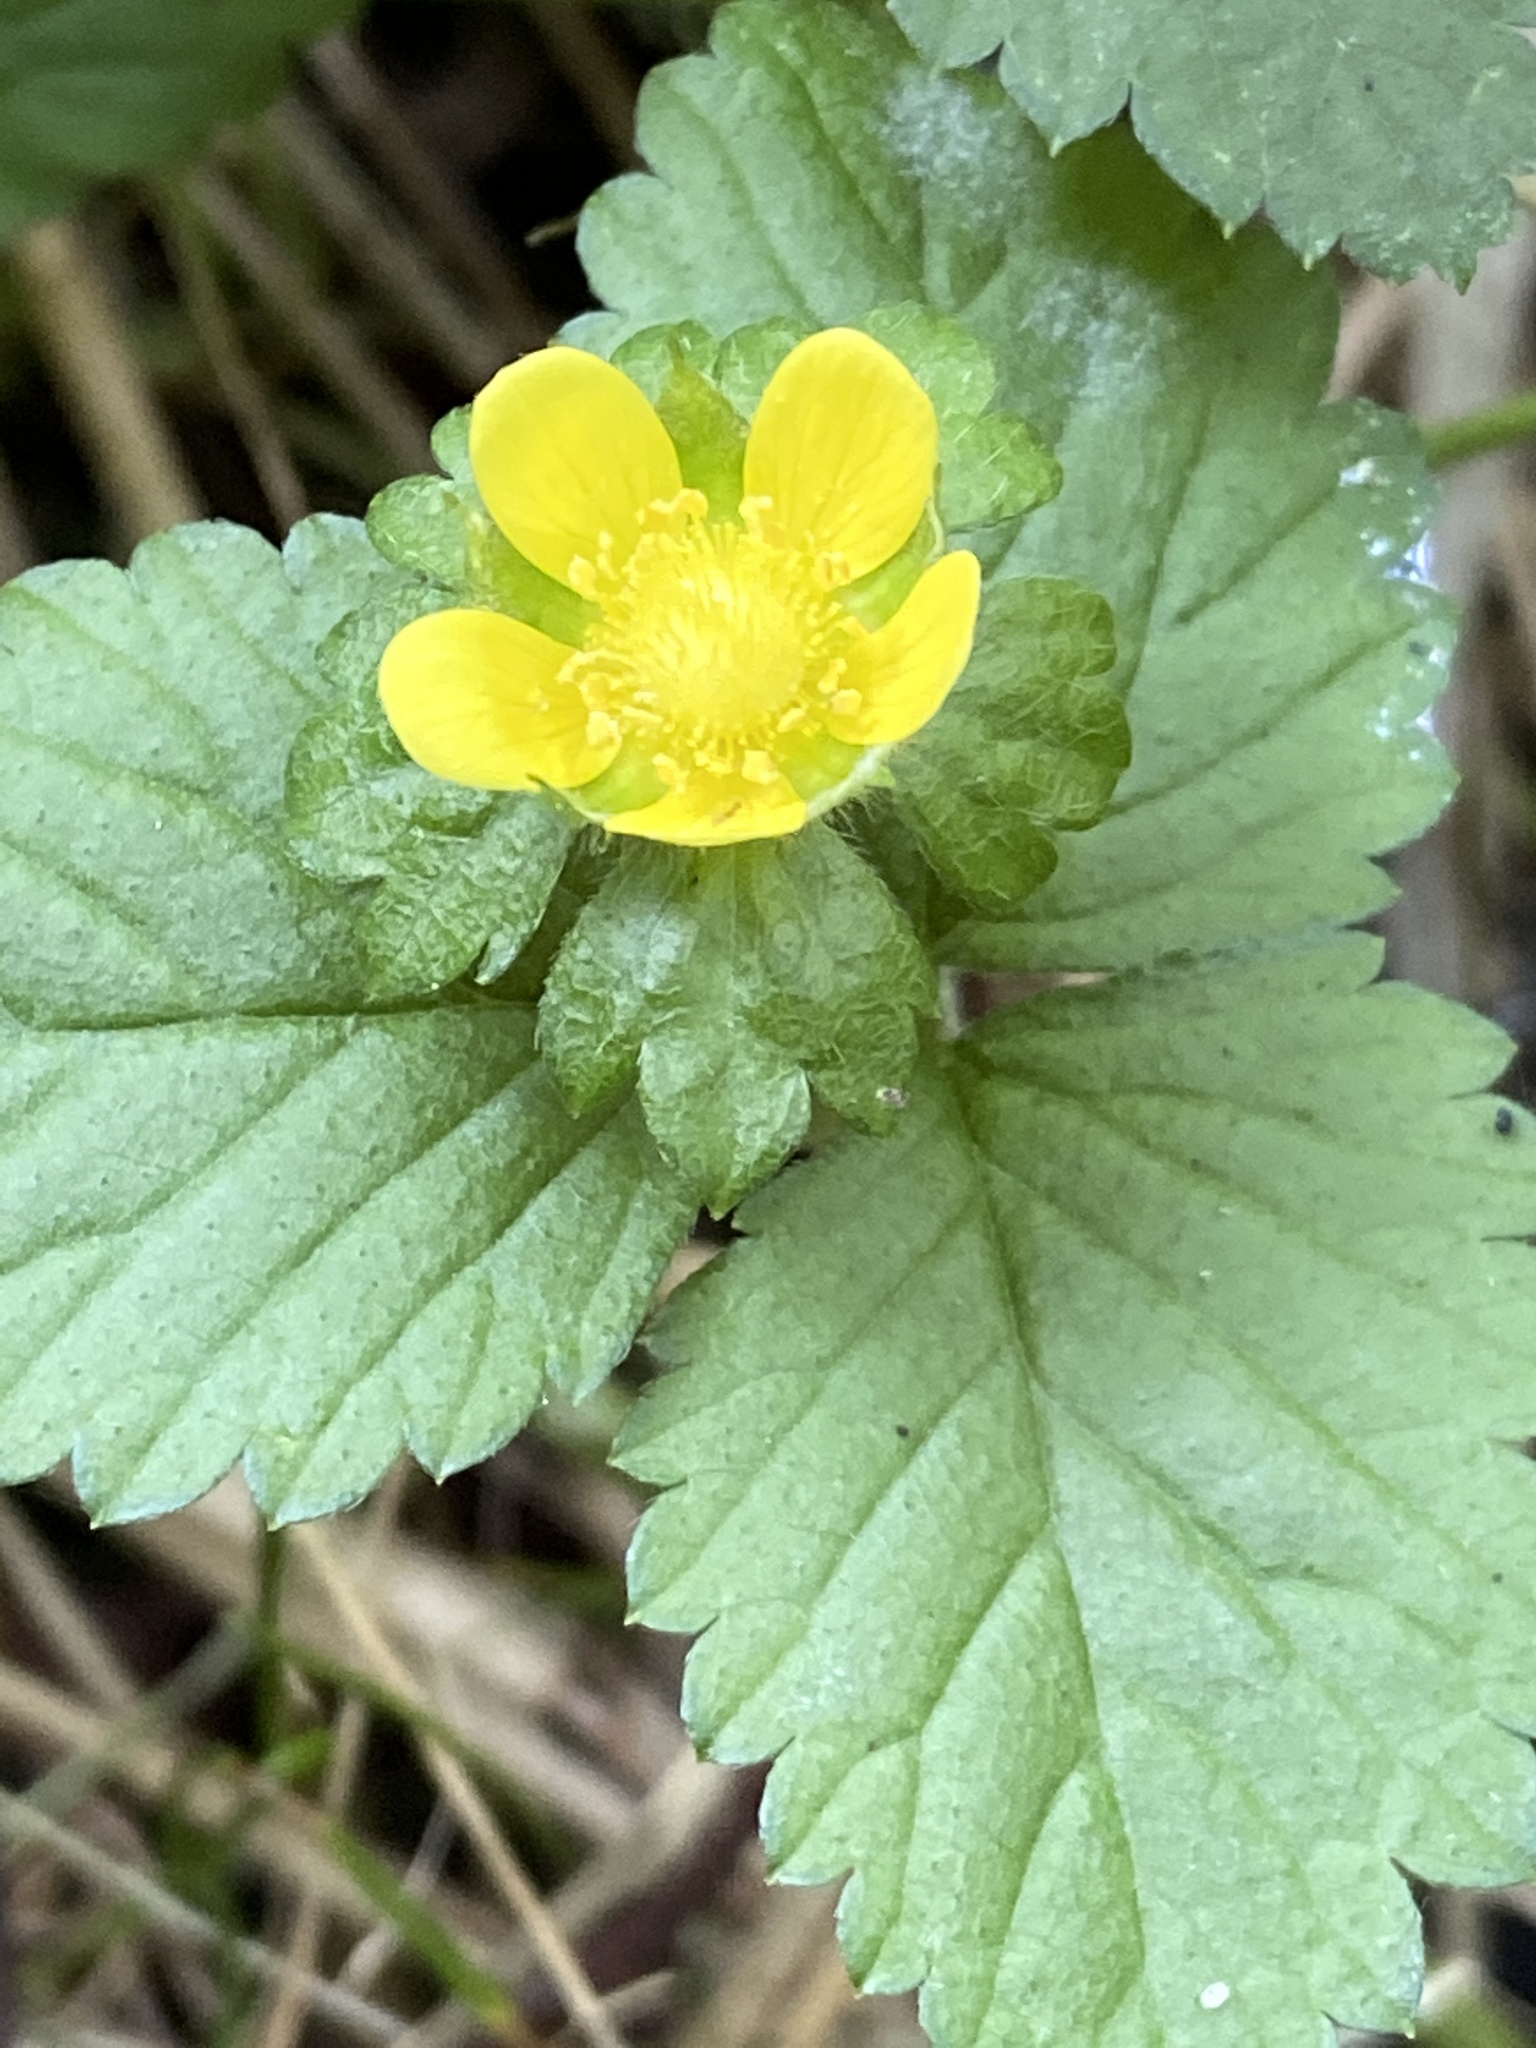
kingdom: Plantae
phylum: Tracheophyta
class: Magnoliopsida
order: Rosales
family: Rosaceae
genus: Potentilla
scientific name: Potentilla indica
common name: Yellow-flowered strawberry
